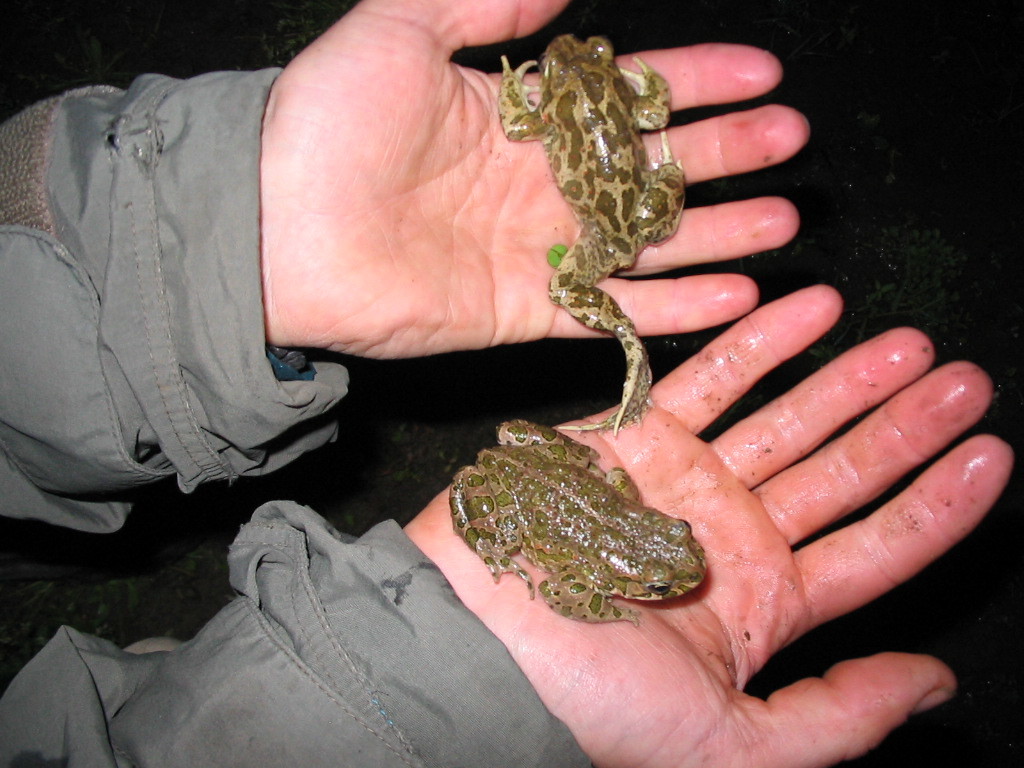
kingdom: Animalia
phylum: Chordata
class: Amphibia
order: Anura
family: Pelobatidae
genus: Pelobates
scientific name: Pelobates balcanicus
